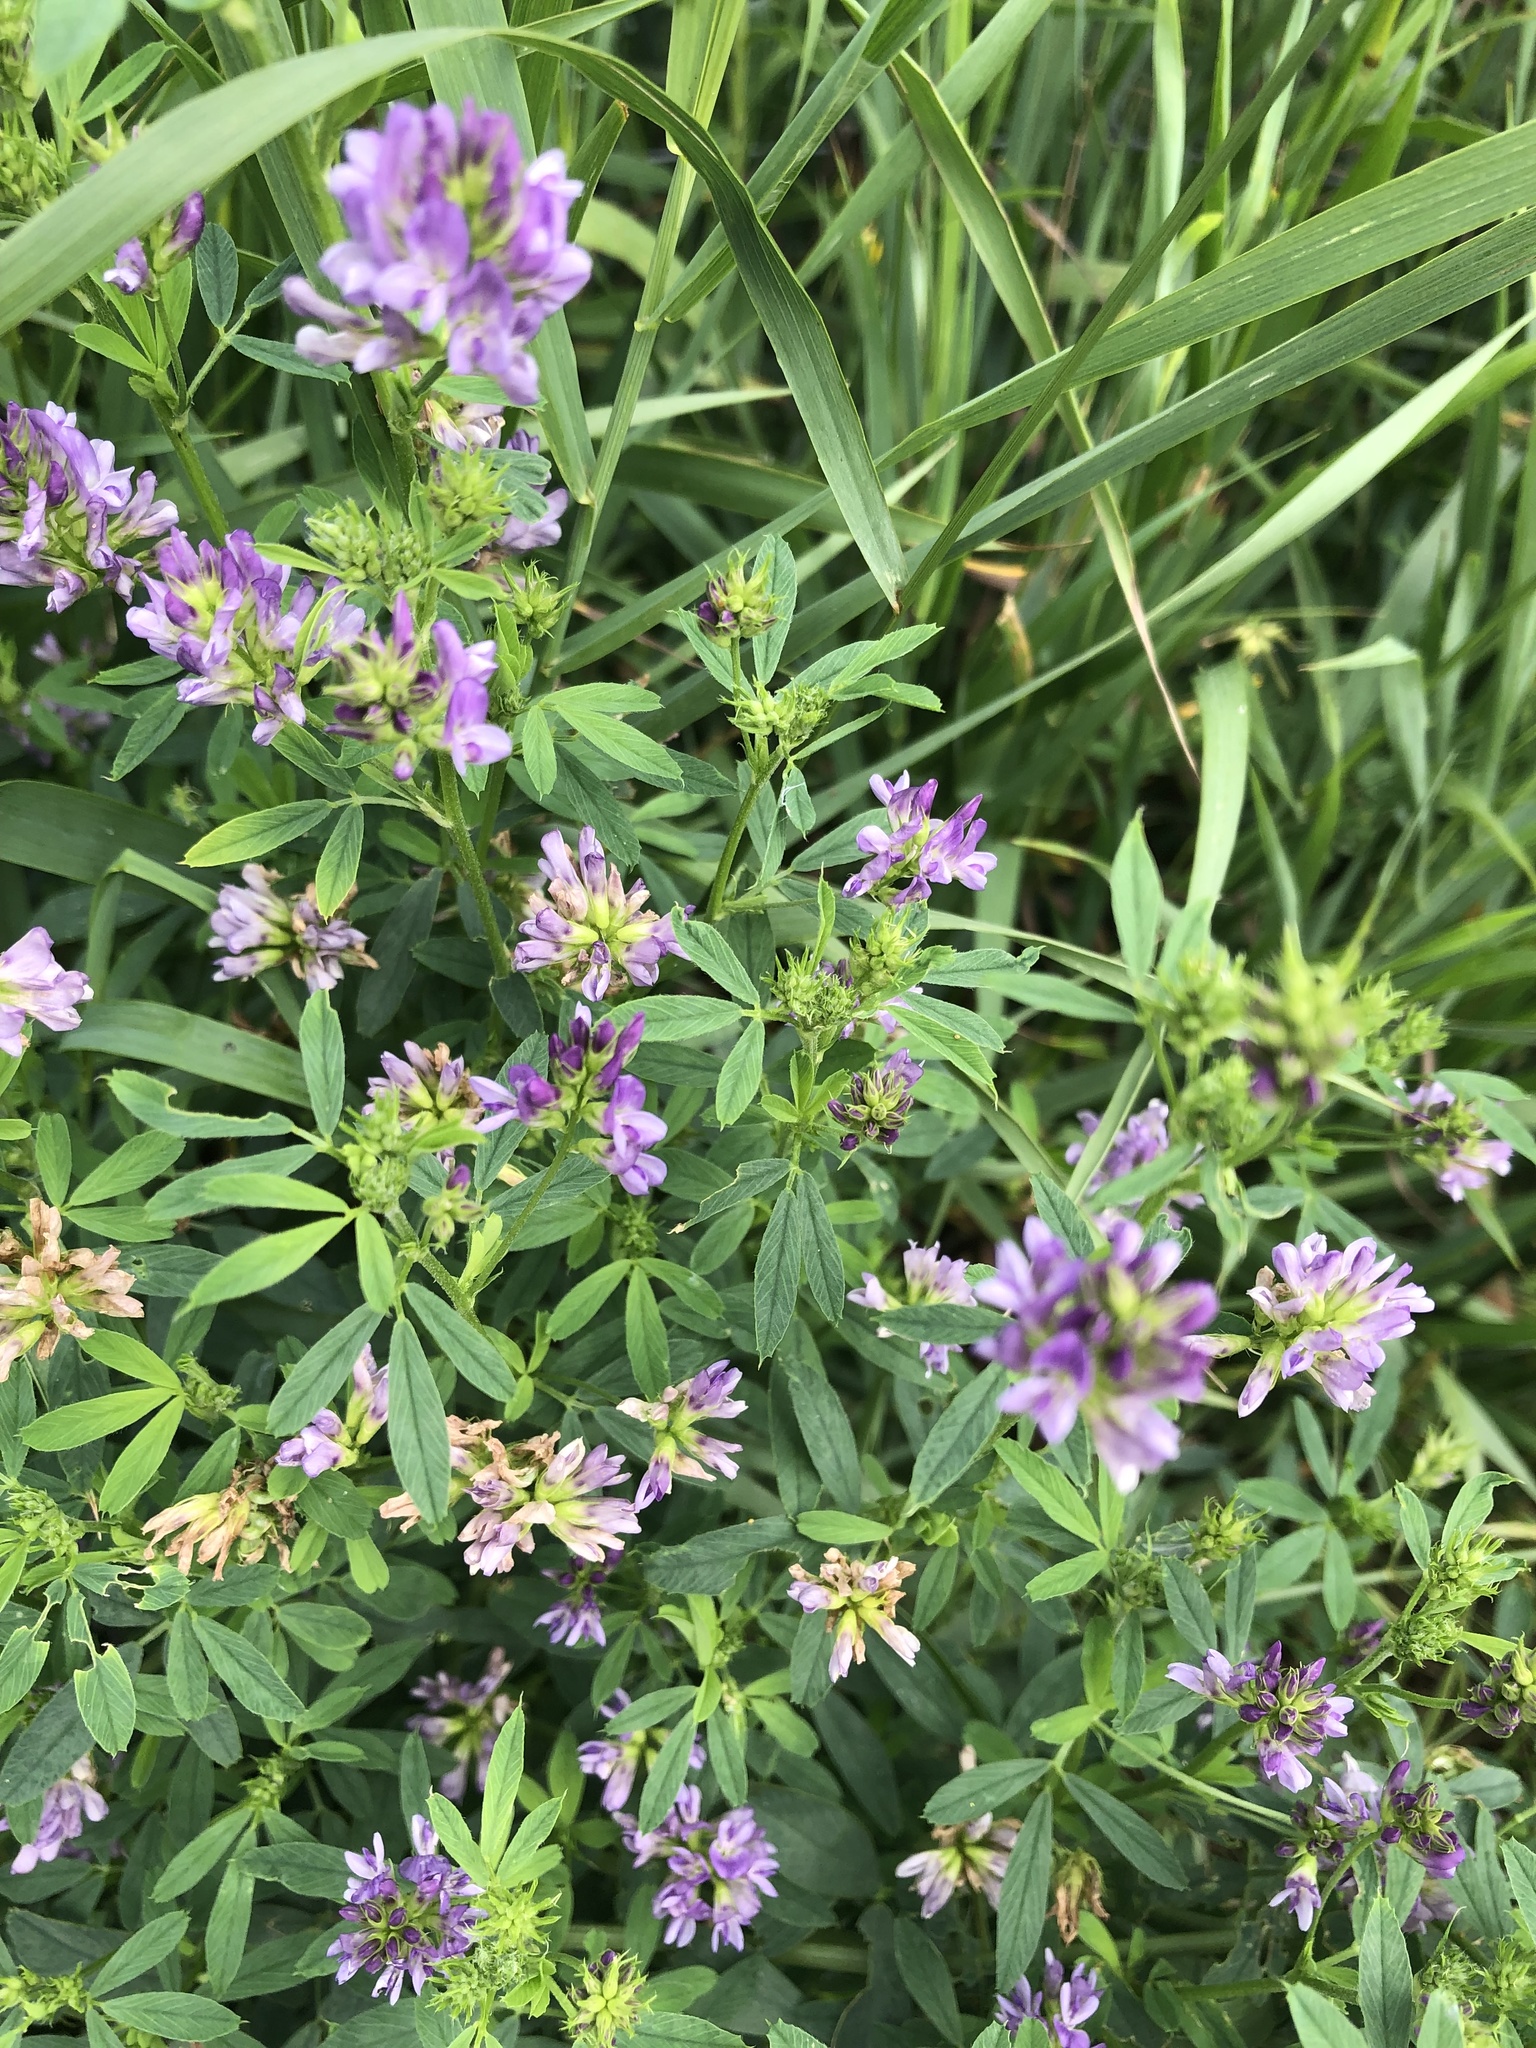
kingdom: Plantae
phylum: Tracheophyta
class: Magnoliopsida
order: Fabales
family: Fabaceae
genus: Medicago
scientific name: Medicago sativa
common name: Alfalfa
